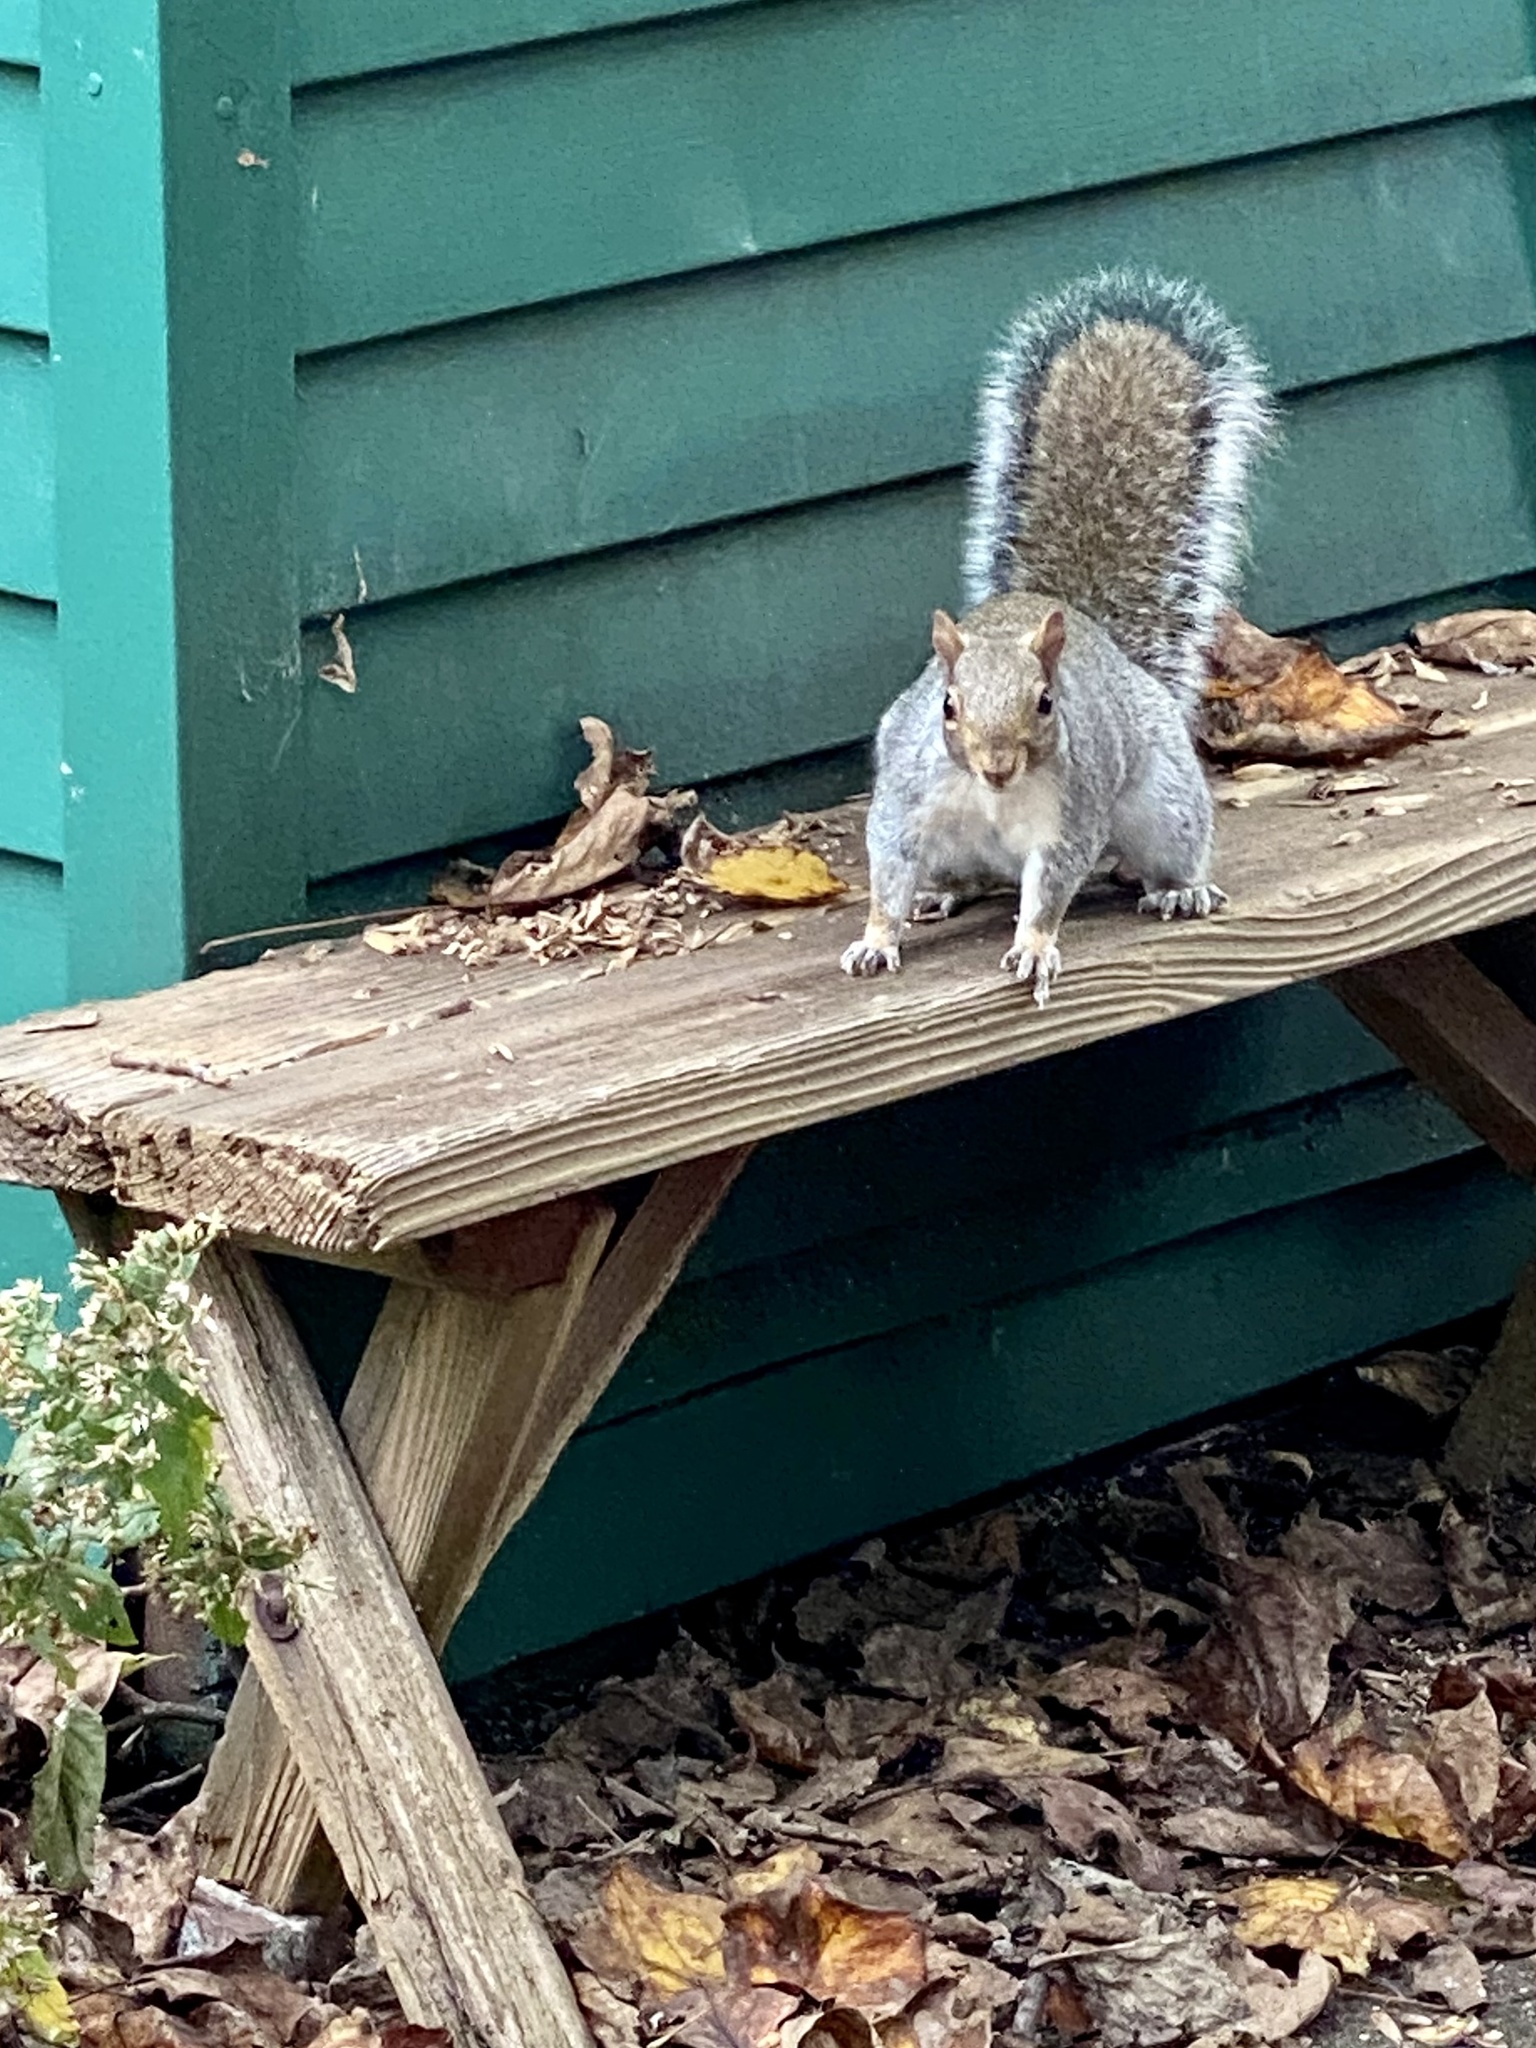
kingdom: Animalia
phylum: Chordata
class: Mammalia
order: Rodentia
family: Sciuridae
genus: Sciurus
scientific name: Sciurus carolinensis
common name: Eastern gray squirrel
